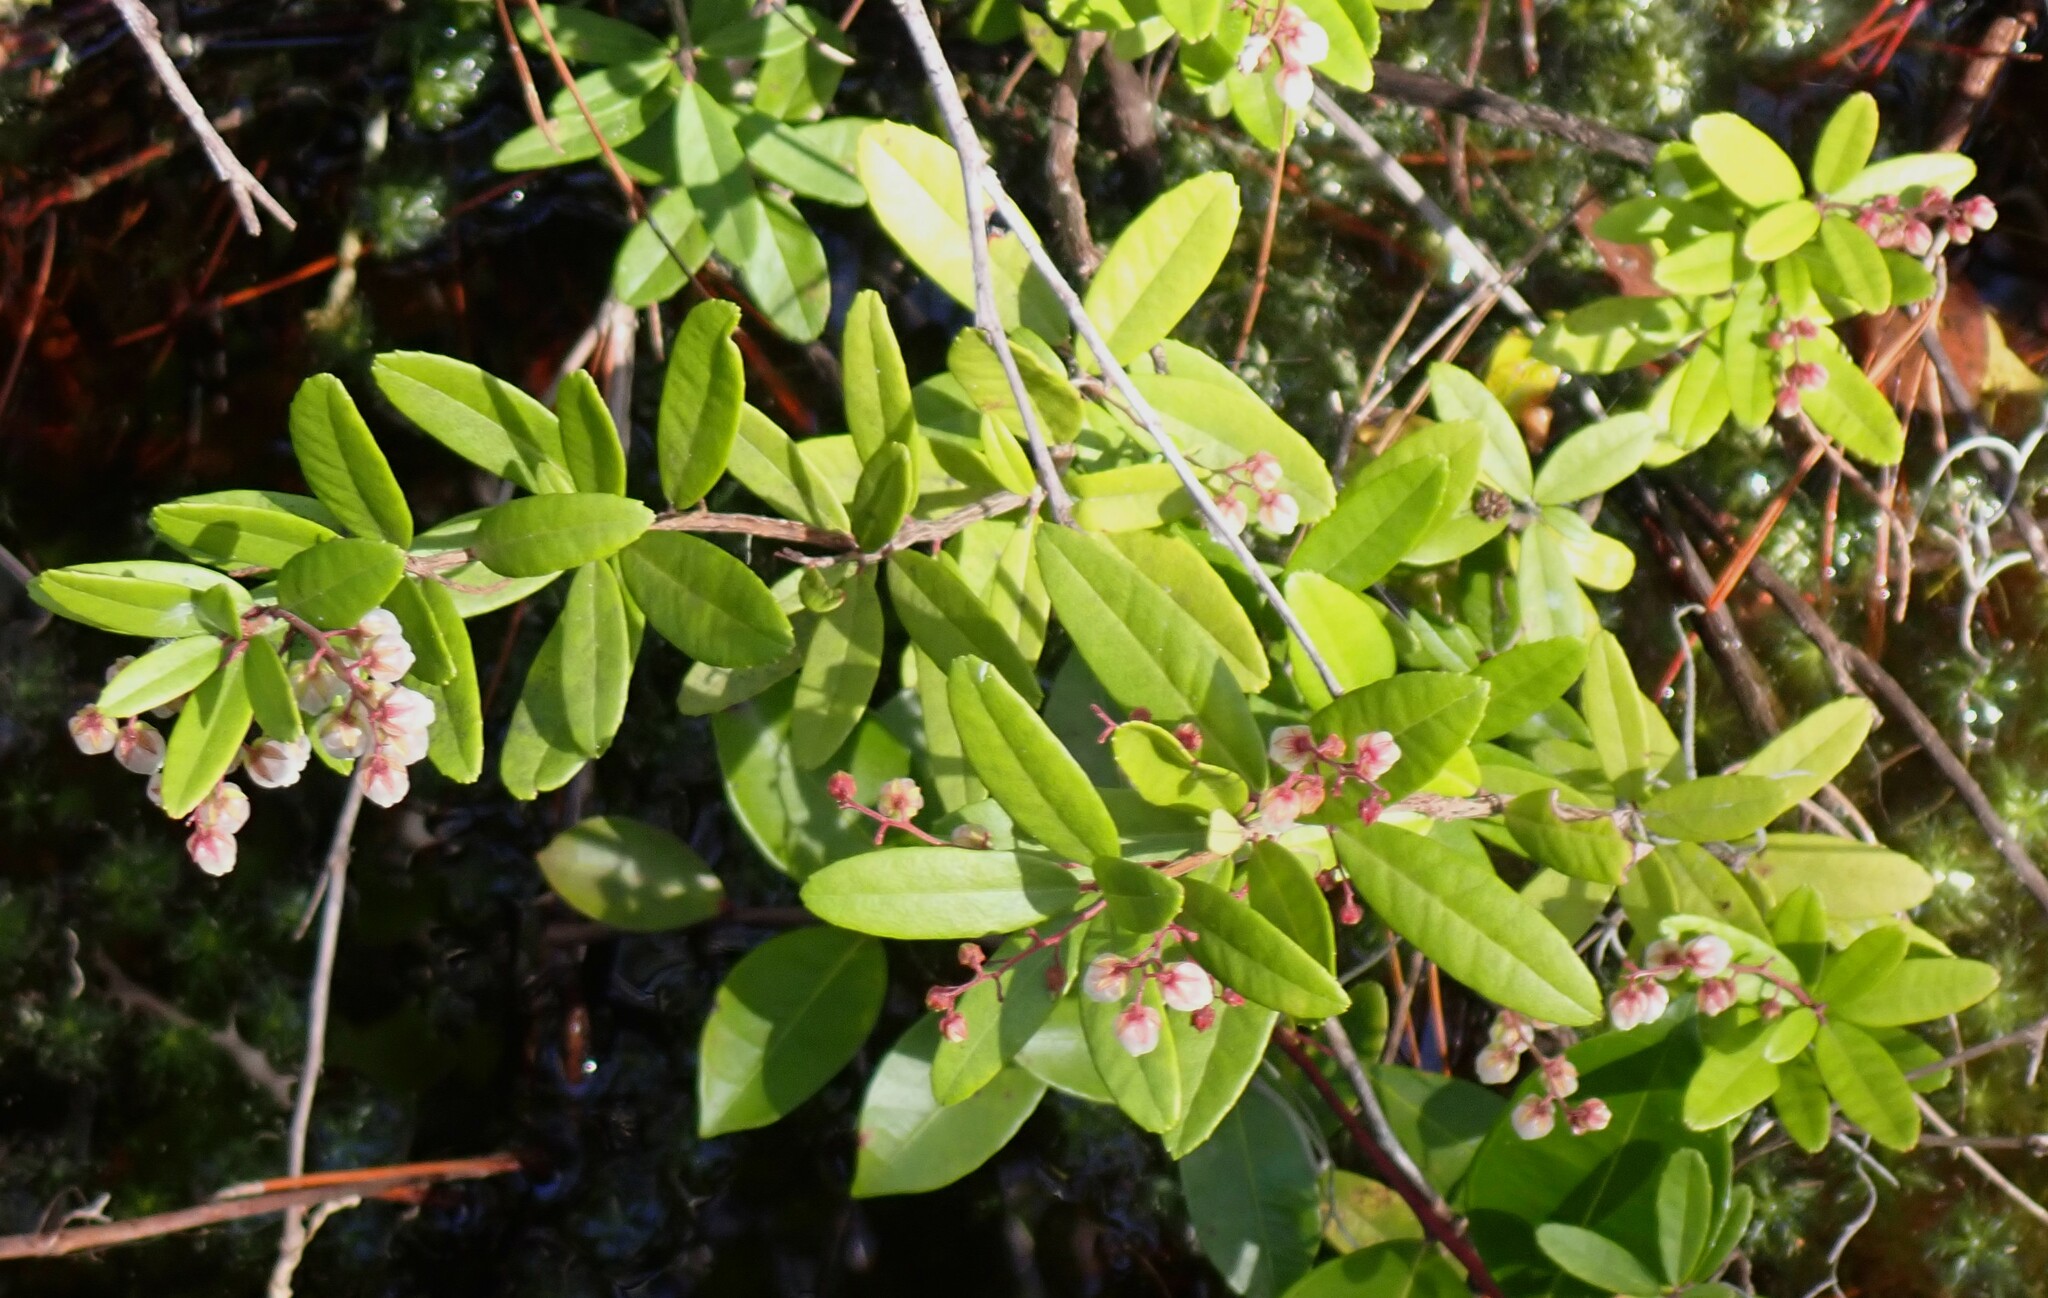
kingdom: Plantae
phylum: Tracheophyta
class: Magnoliopsida
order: Ericales
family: Ericaceae
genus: Pieris
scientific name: Pieris phillyreifolia
